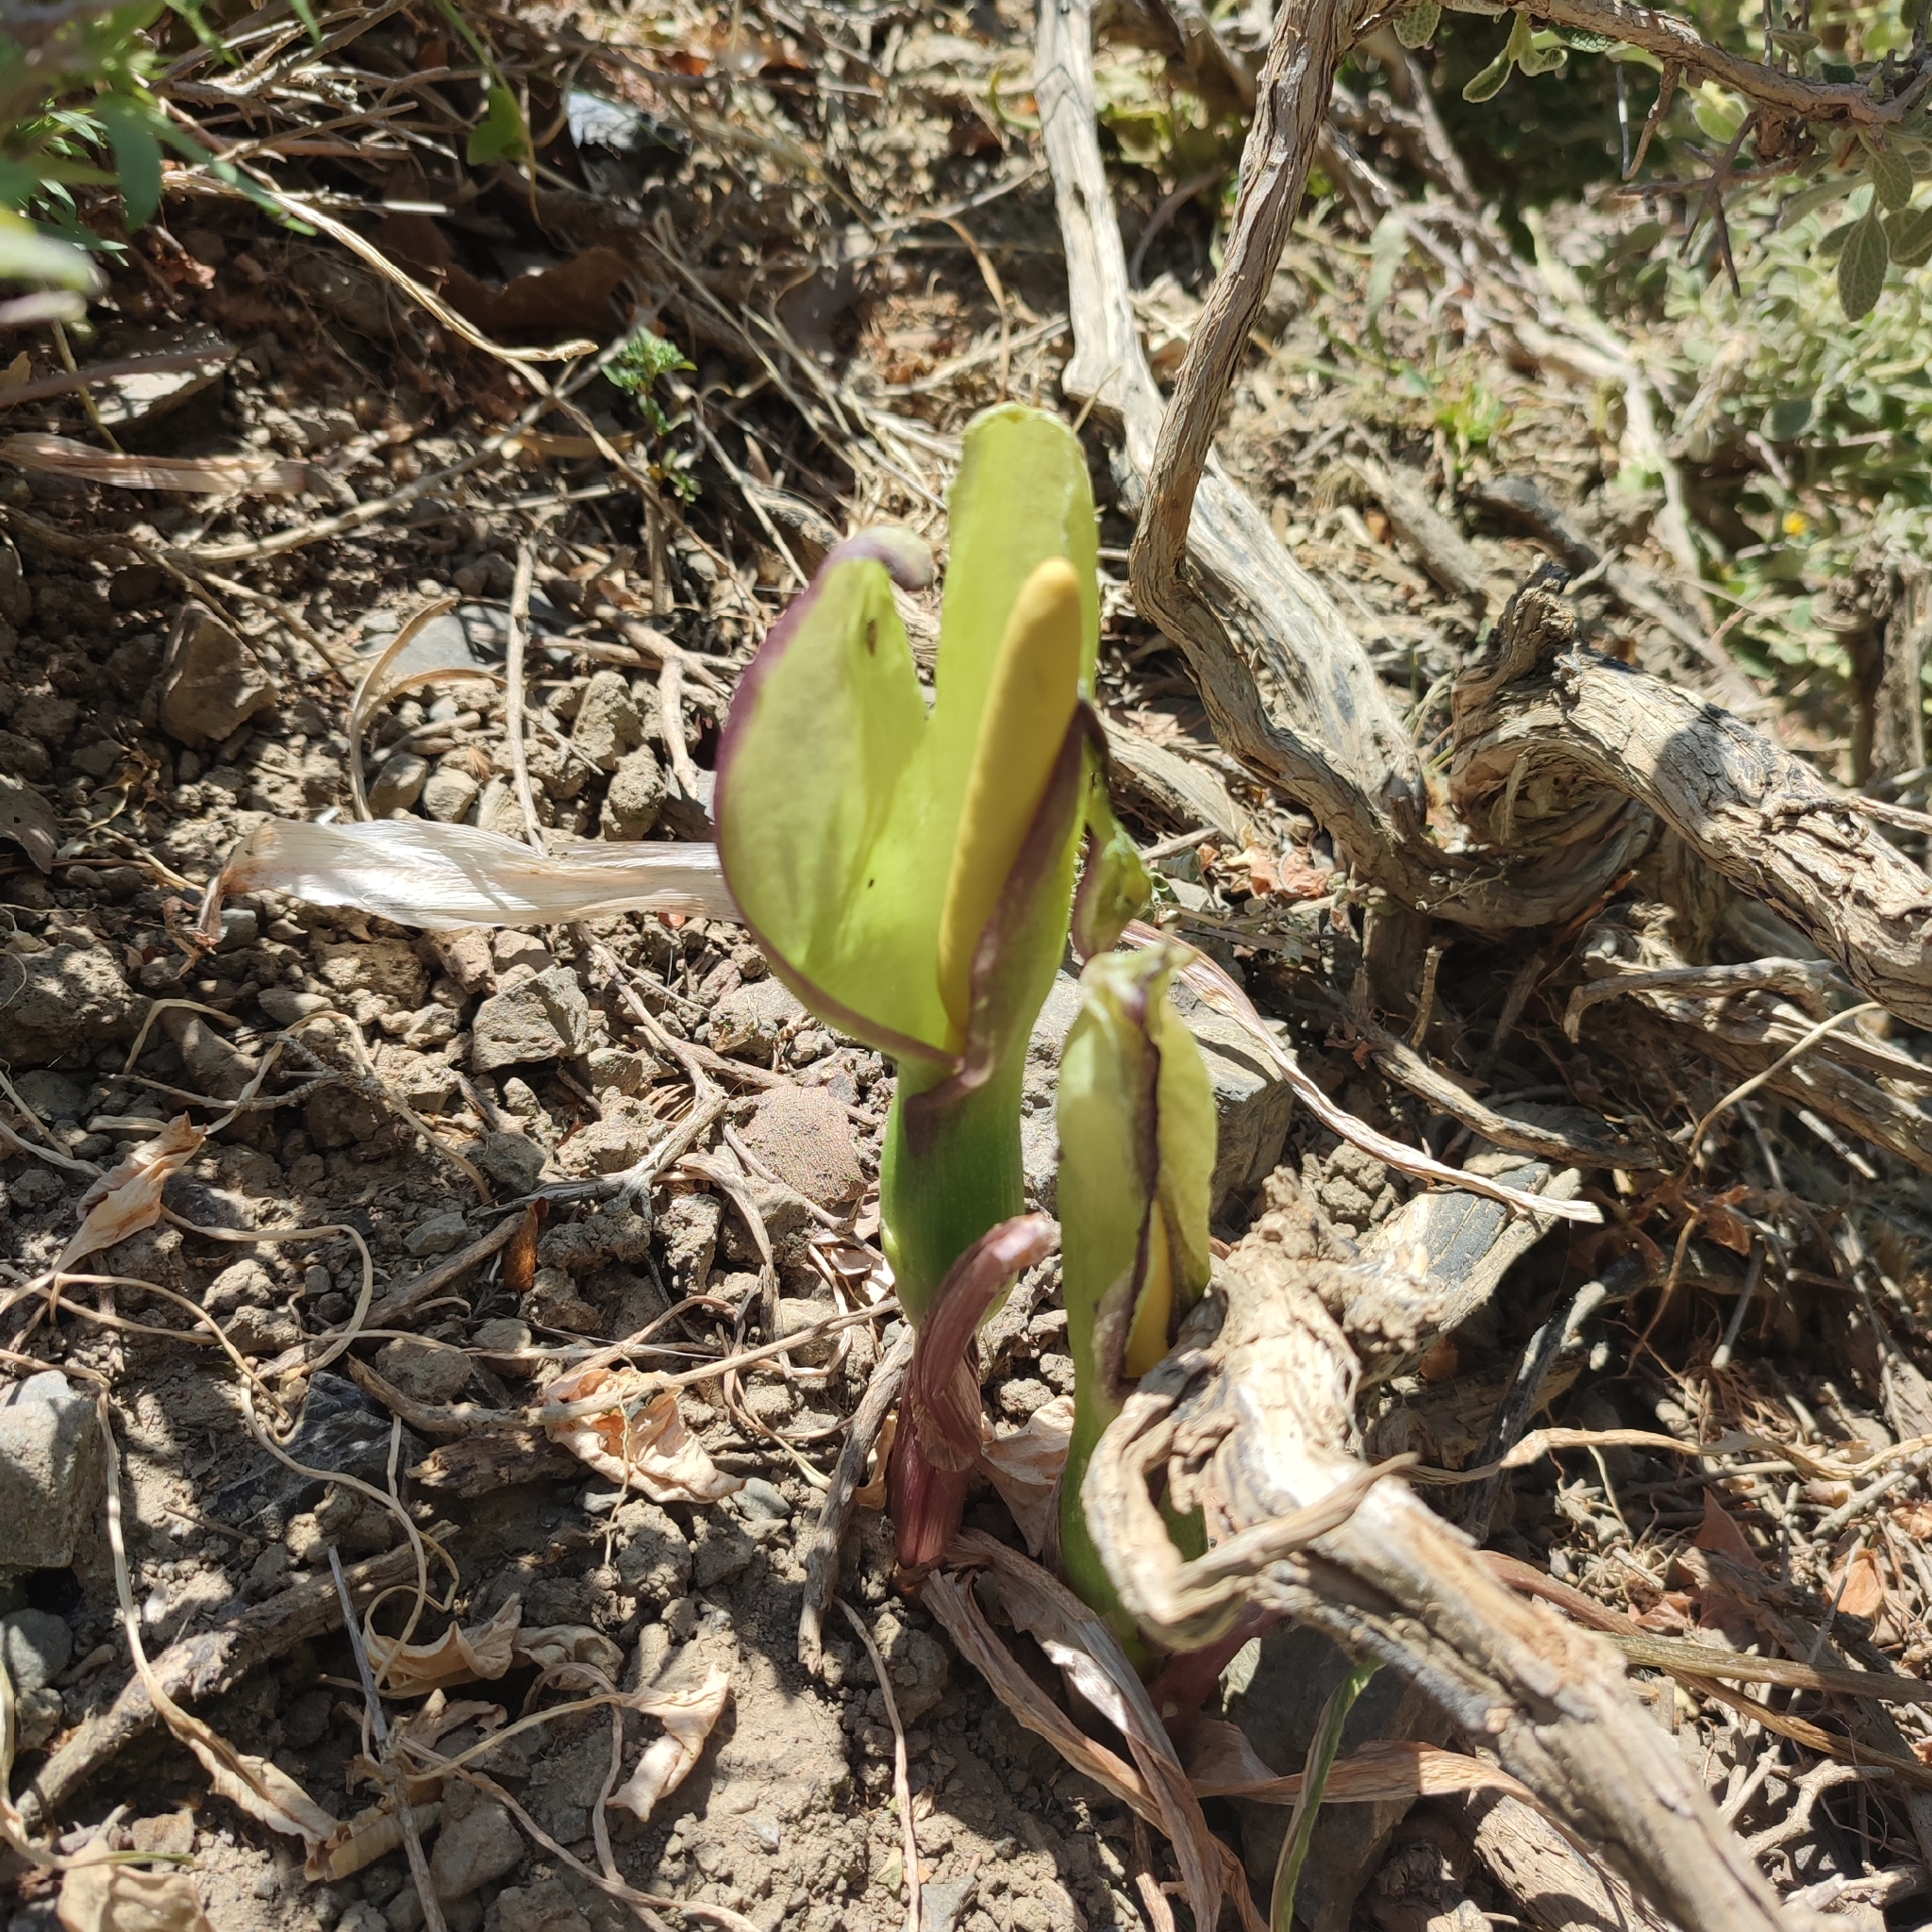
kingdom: Plantae
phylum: Tracheophyta
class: Liliopsida
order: Alismatales
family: Araceae
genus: Arum
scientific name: Arum concinnatum
